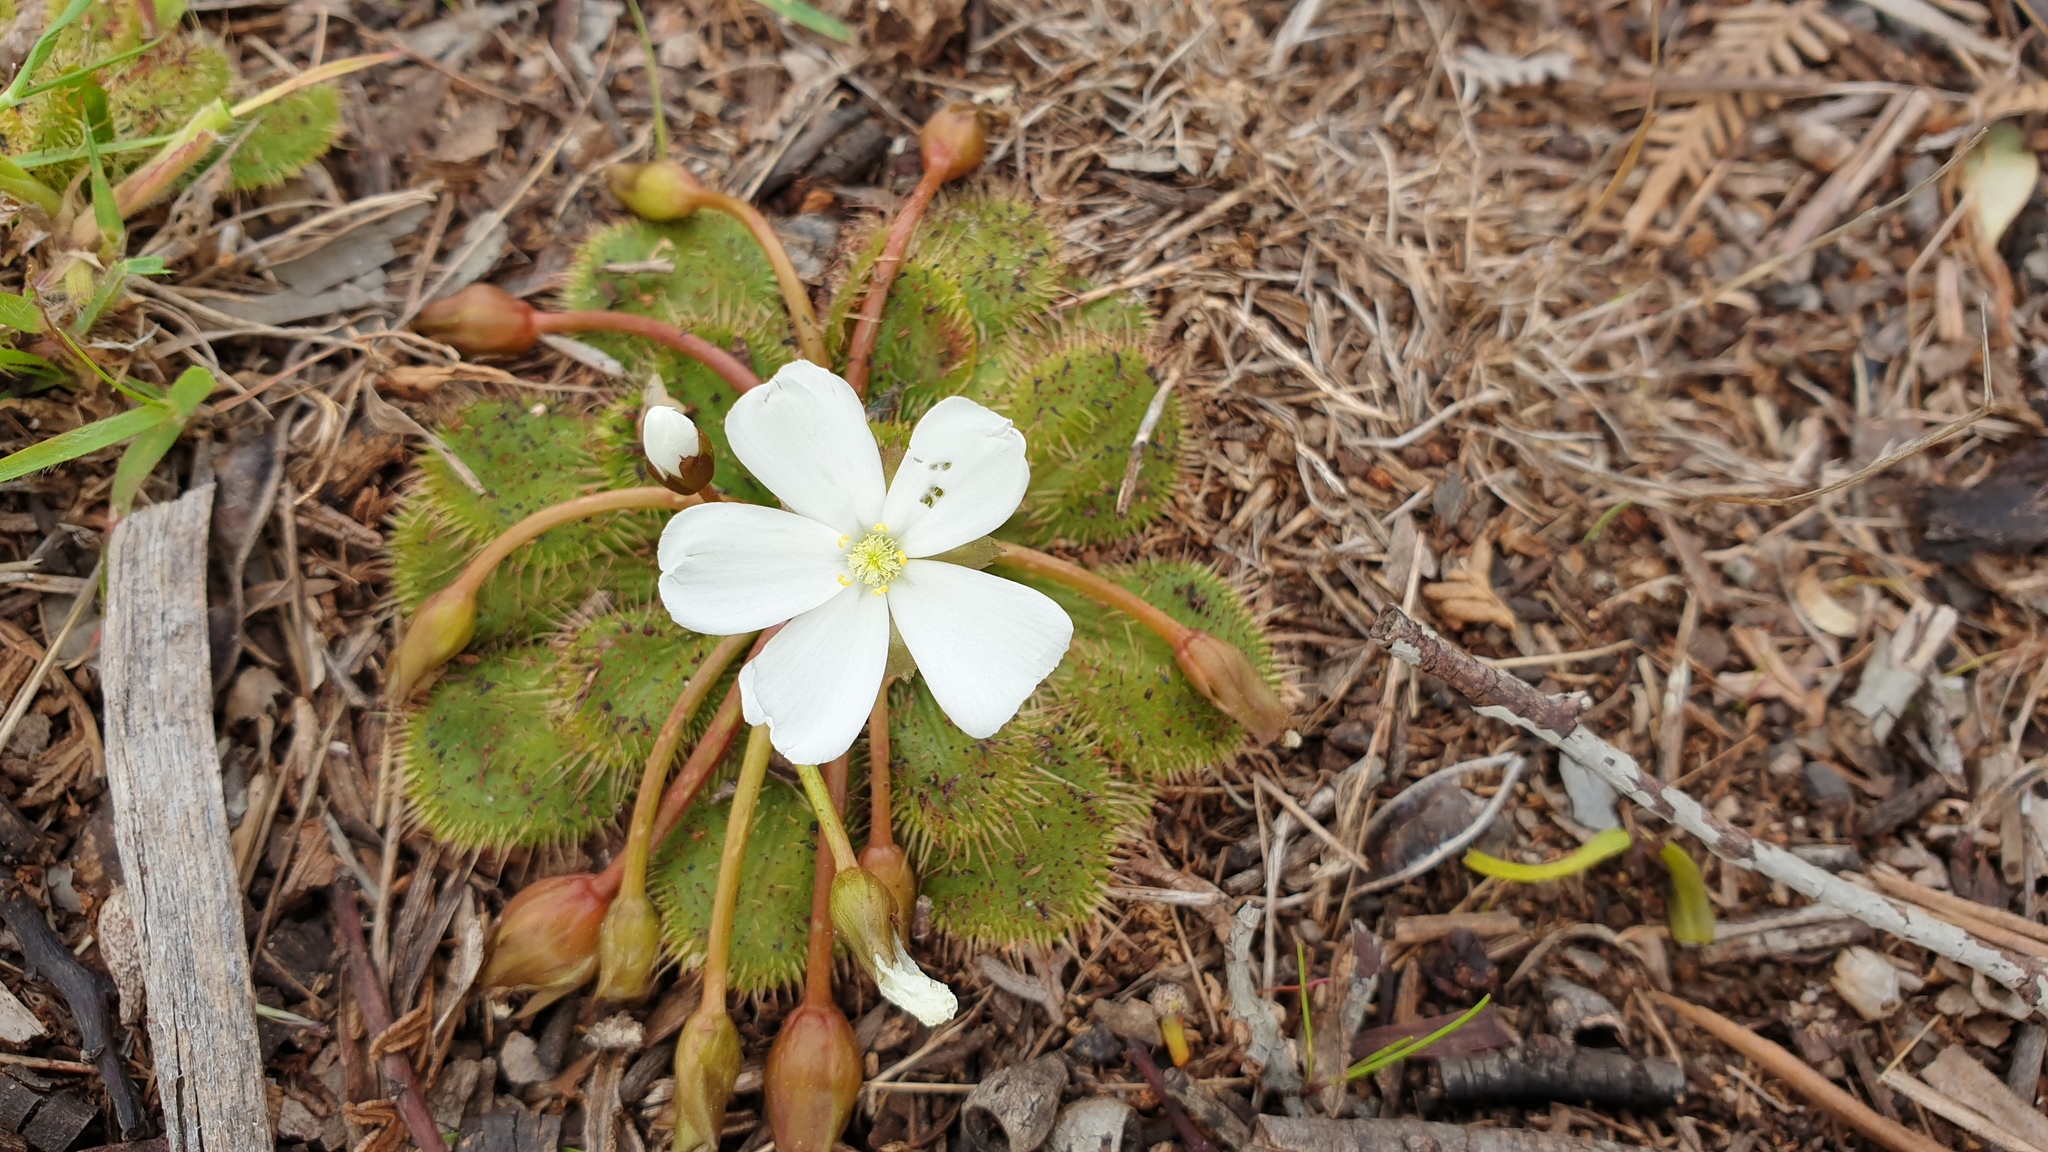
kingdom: Plantae
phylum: Tracheophyta
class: Magnoliopsida
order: Caryophyllales
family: Droseraceae
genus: Drosera
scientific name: Drosera whittakeri
